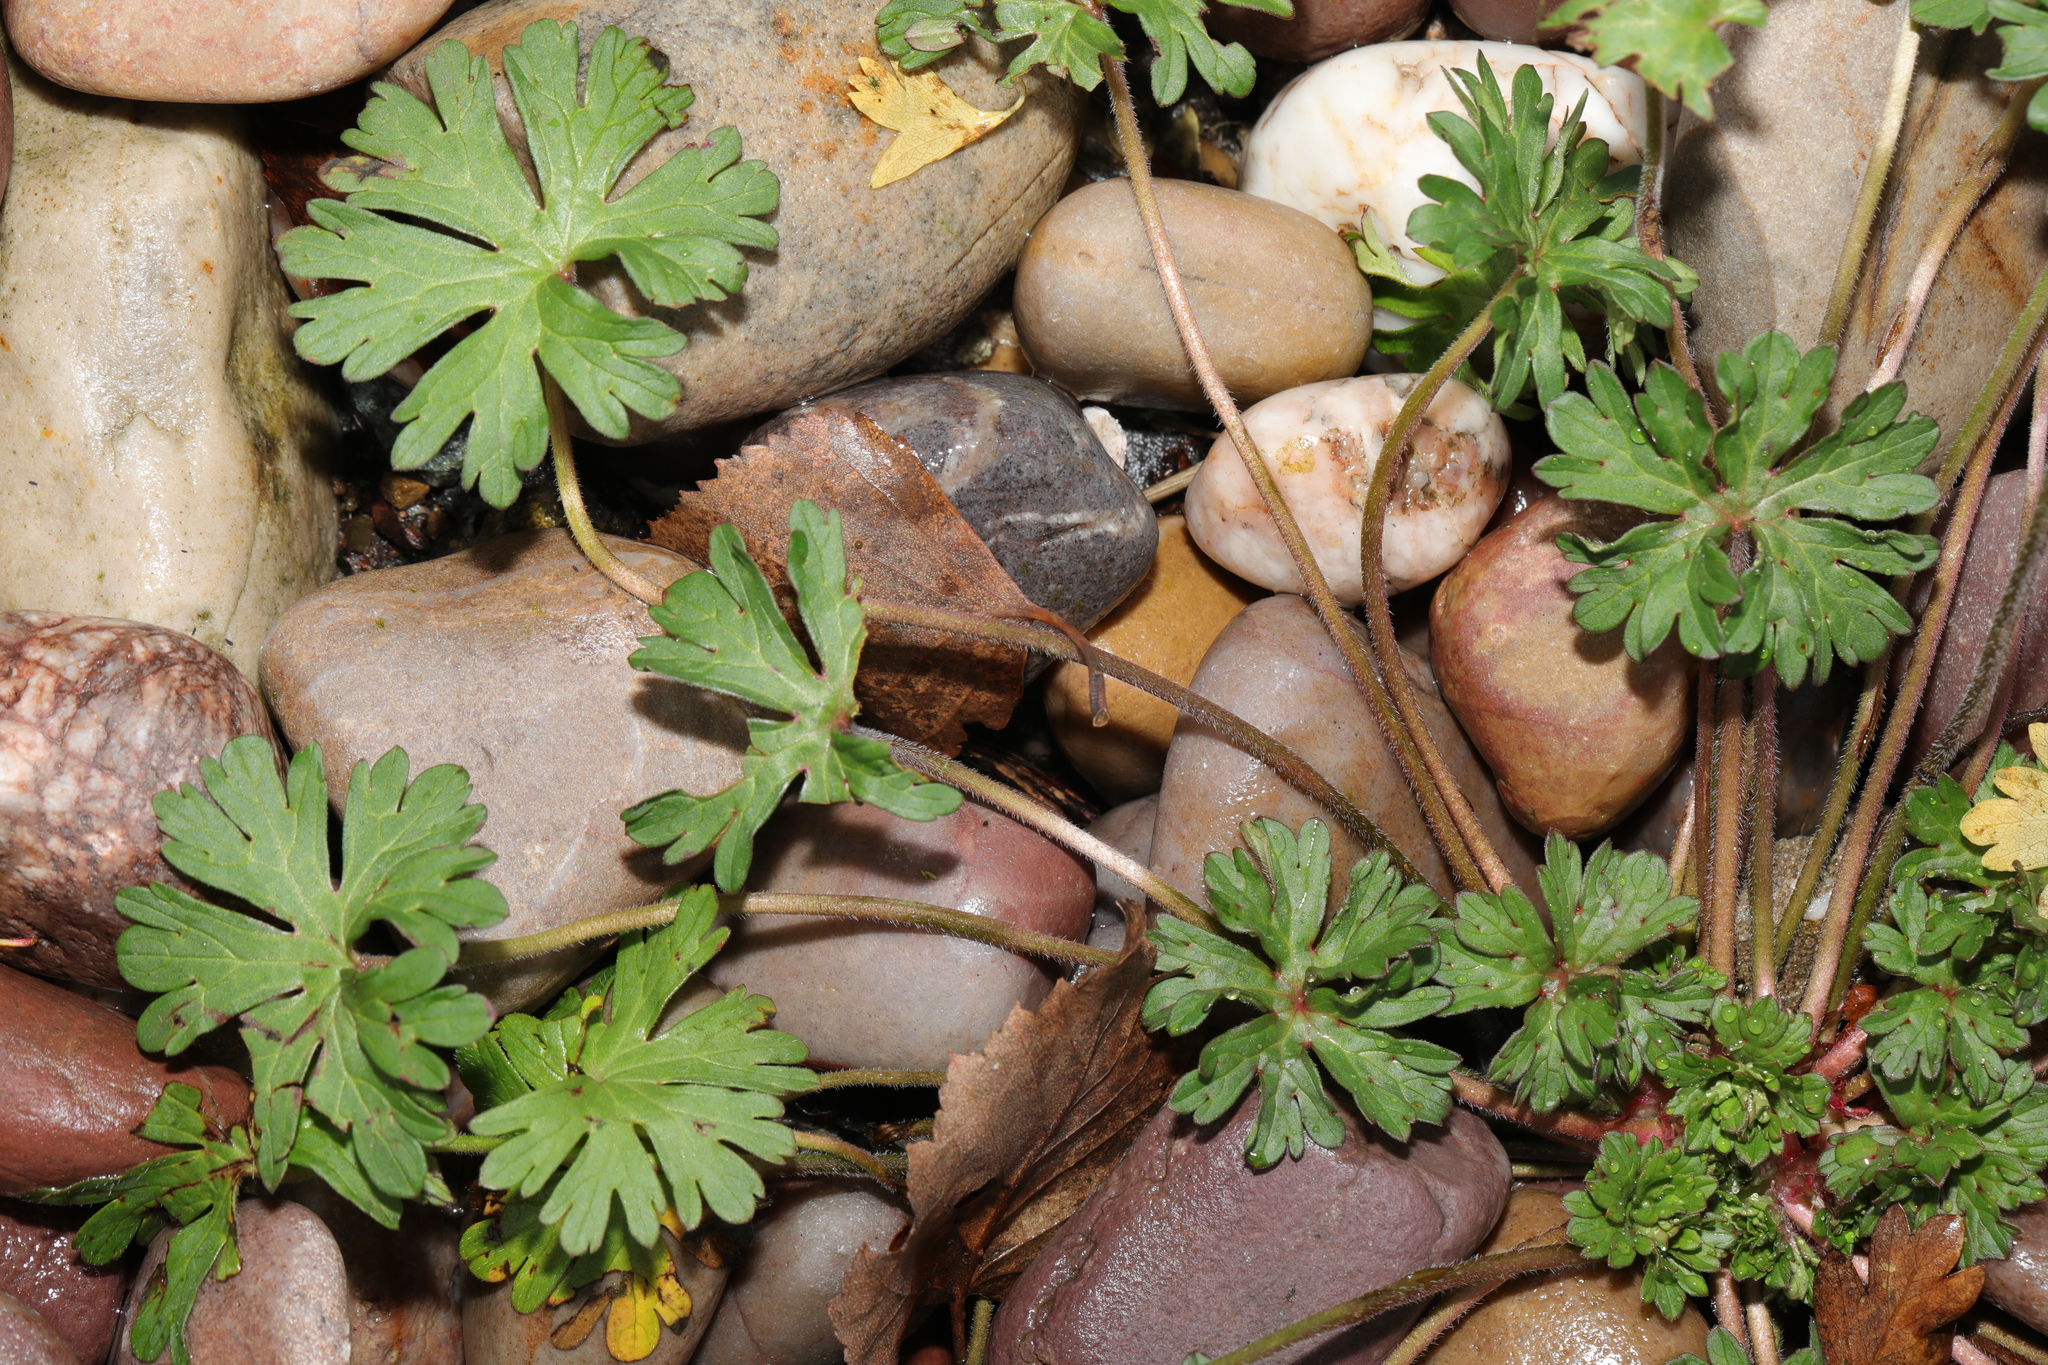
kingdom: Plantae
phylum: Tracheophyta
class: Magnoliopsida
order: Geraniales
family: Geraniaceae
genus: Geranium
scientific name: Geranium dissectum
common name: Cut-leaved crane's-bill
